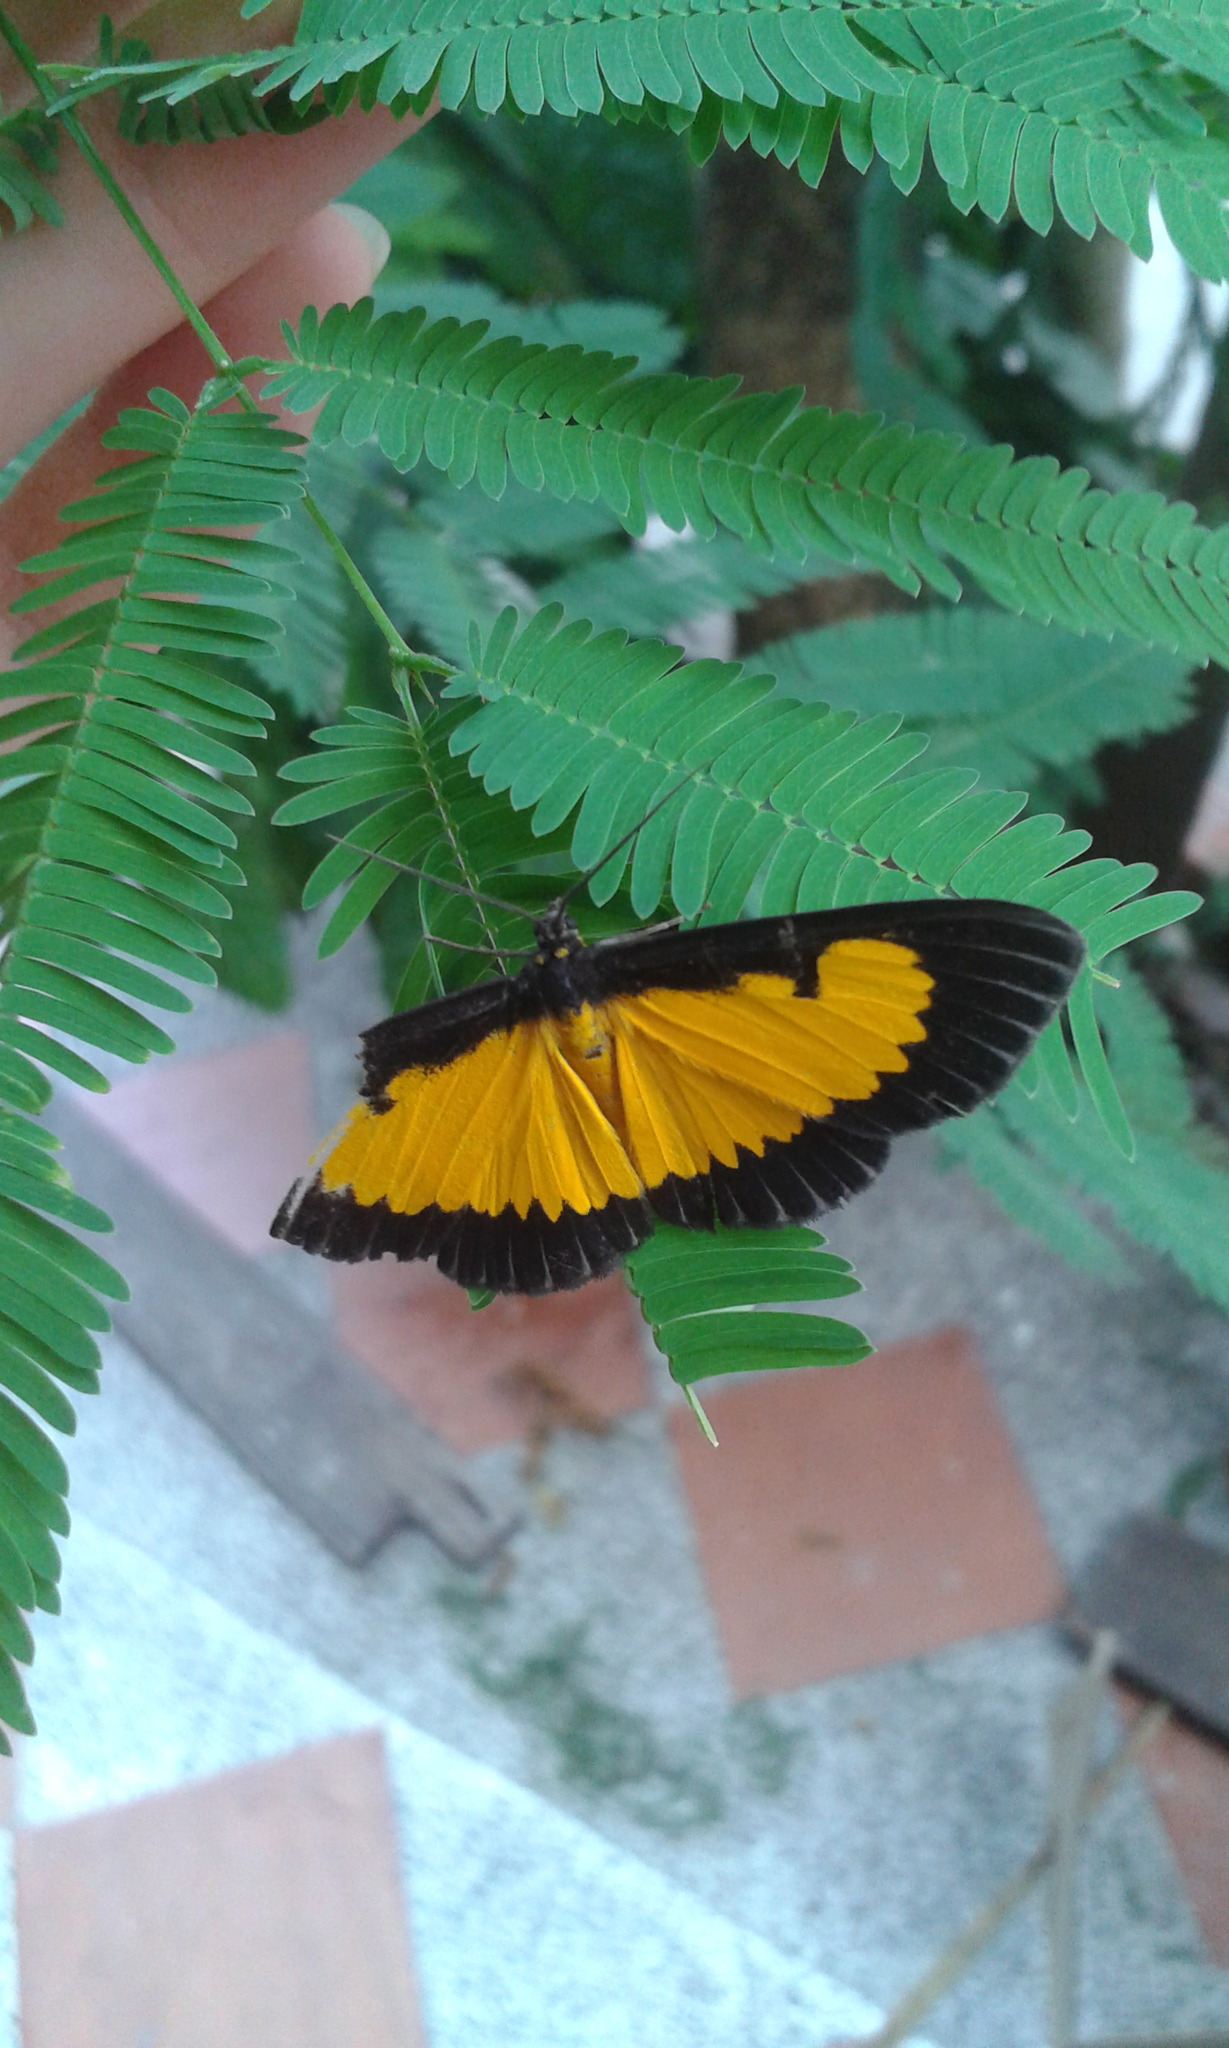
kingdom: Animalia
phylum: Arthropoda
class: Insecta
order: Lepidoptera
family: Geometridae
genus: Xanthyris
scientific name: Xanthyris flaveolata
